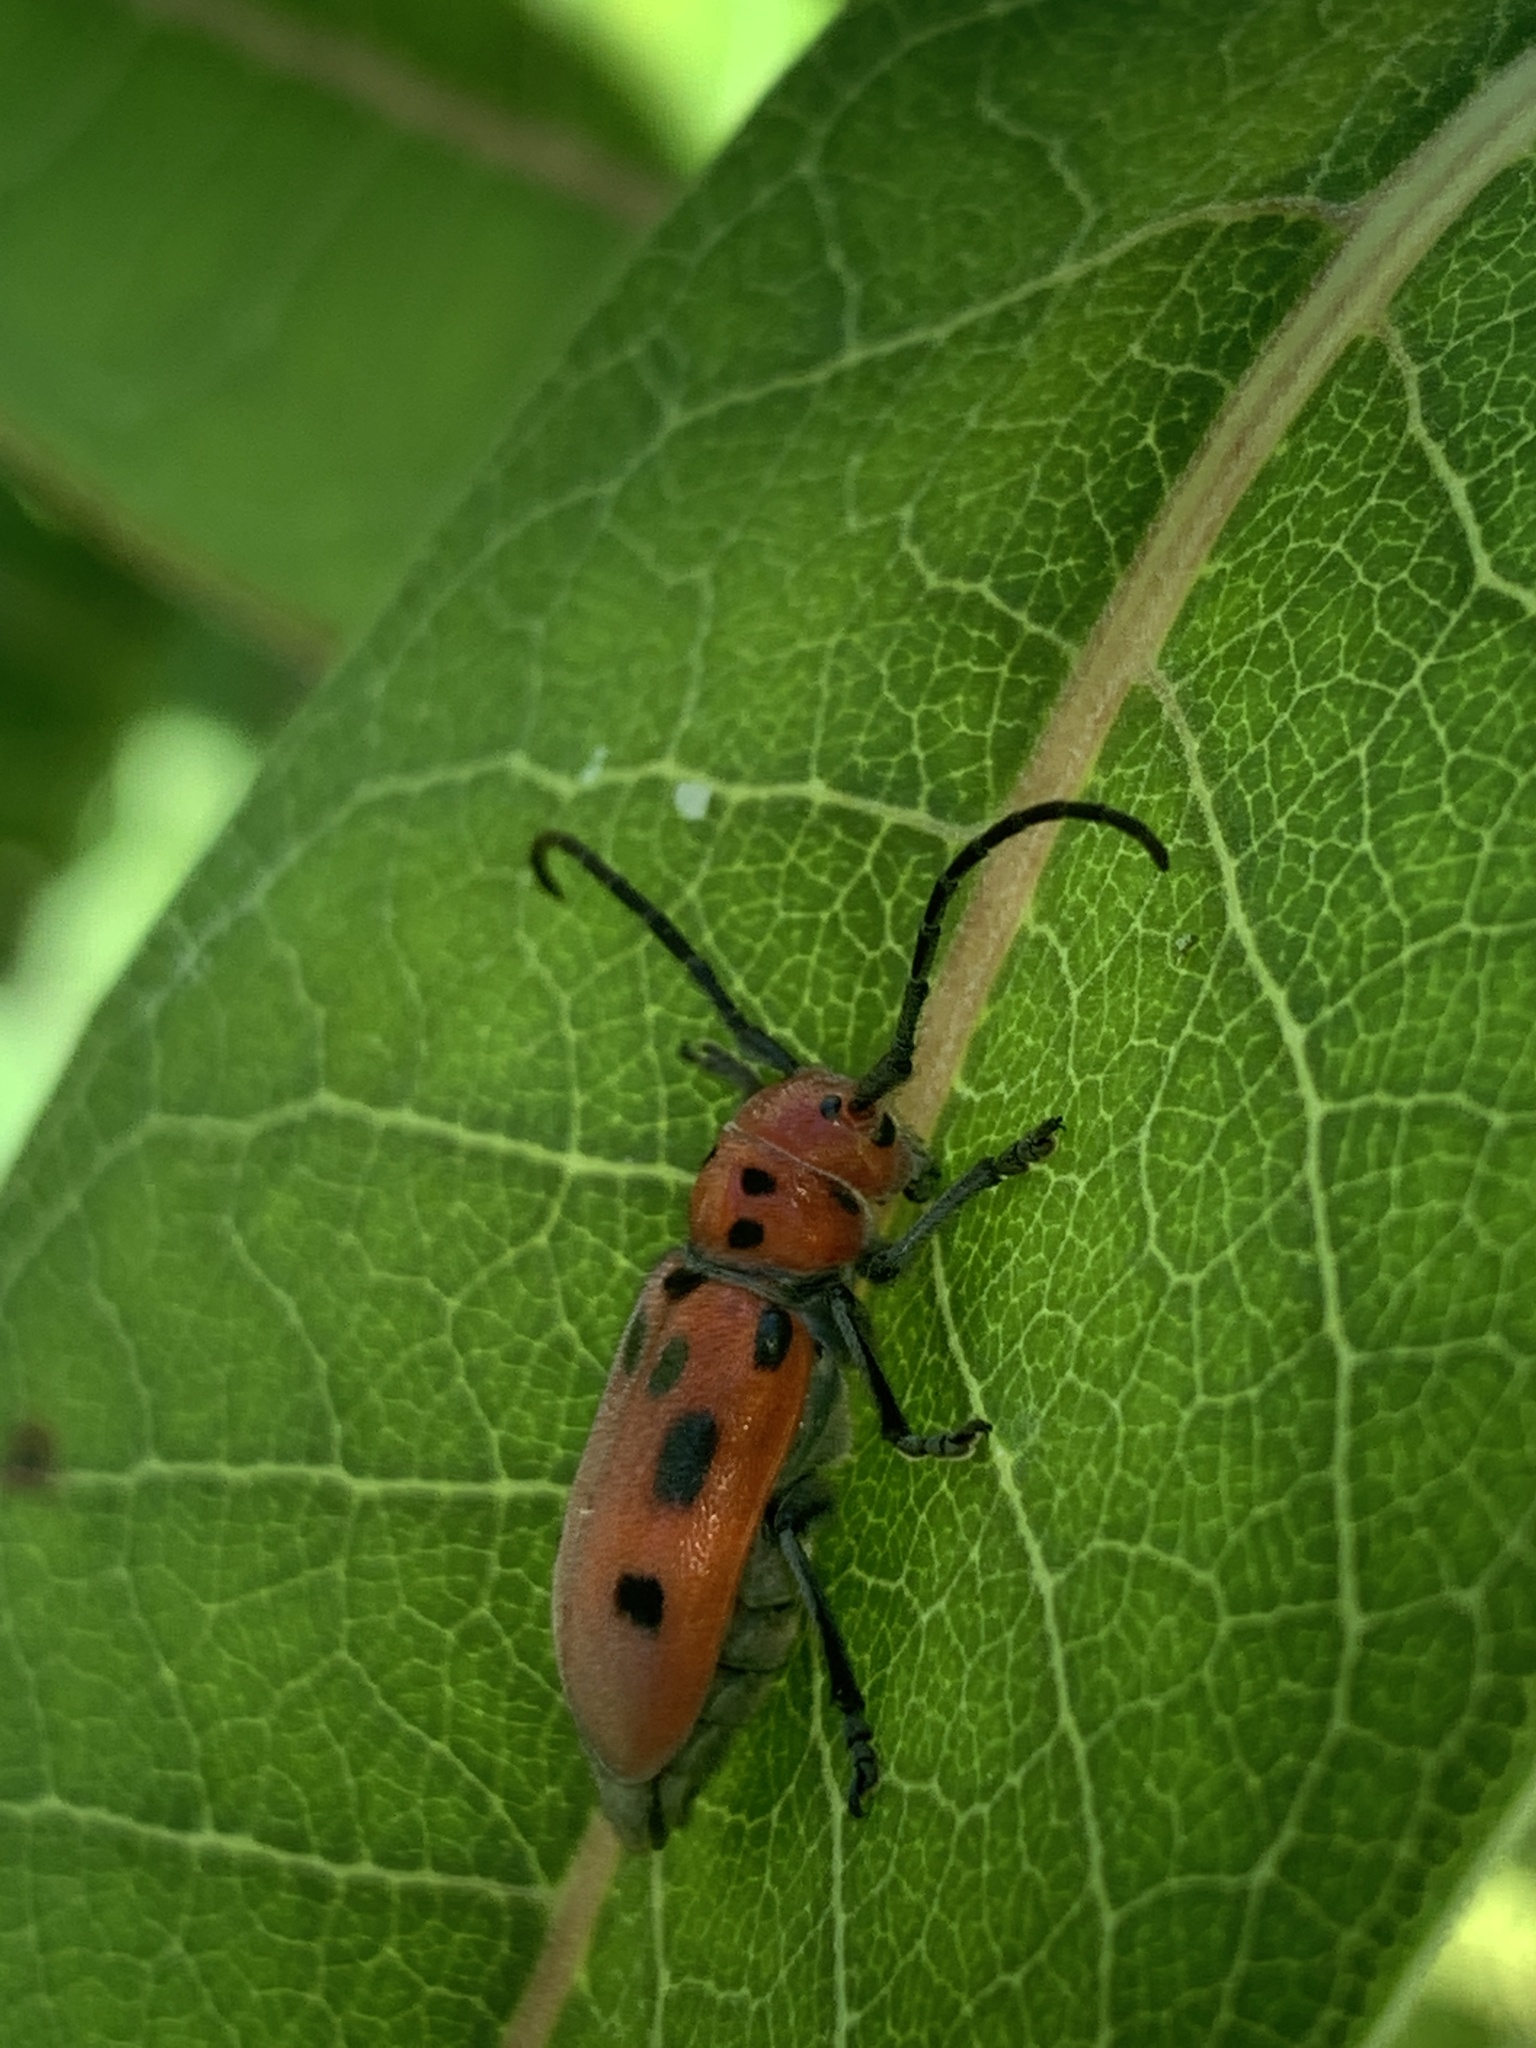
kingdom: Animalia
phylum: Arthropoda
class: Insecta
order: Coleoptera
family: Cerambycidae
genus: Tetraopes
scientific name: Tetraopes tetrophthalmus
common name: Red milkweed beetle
